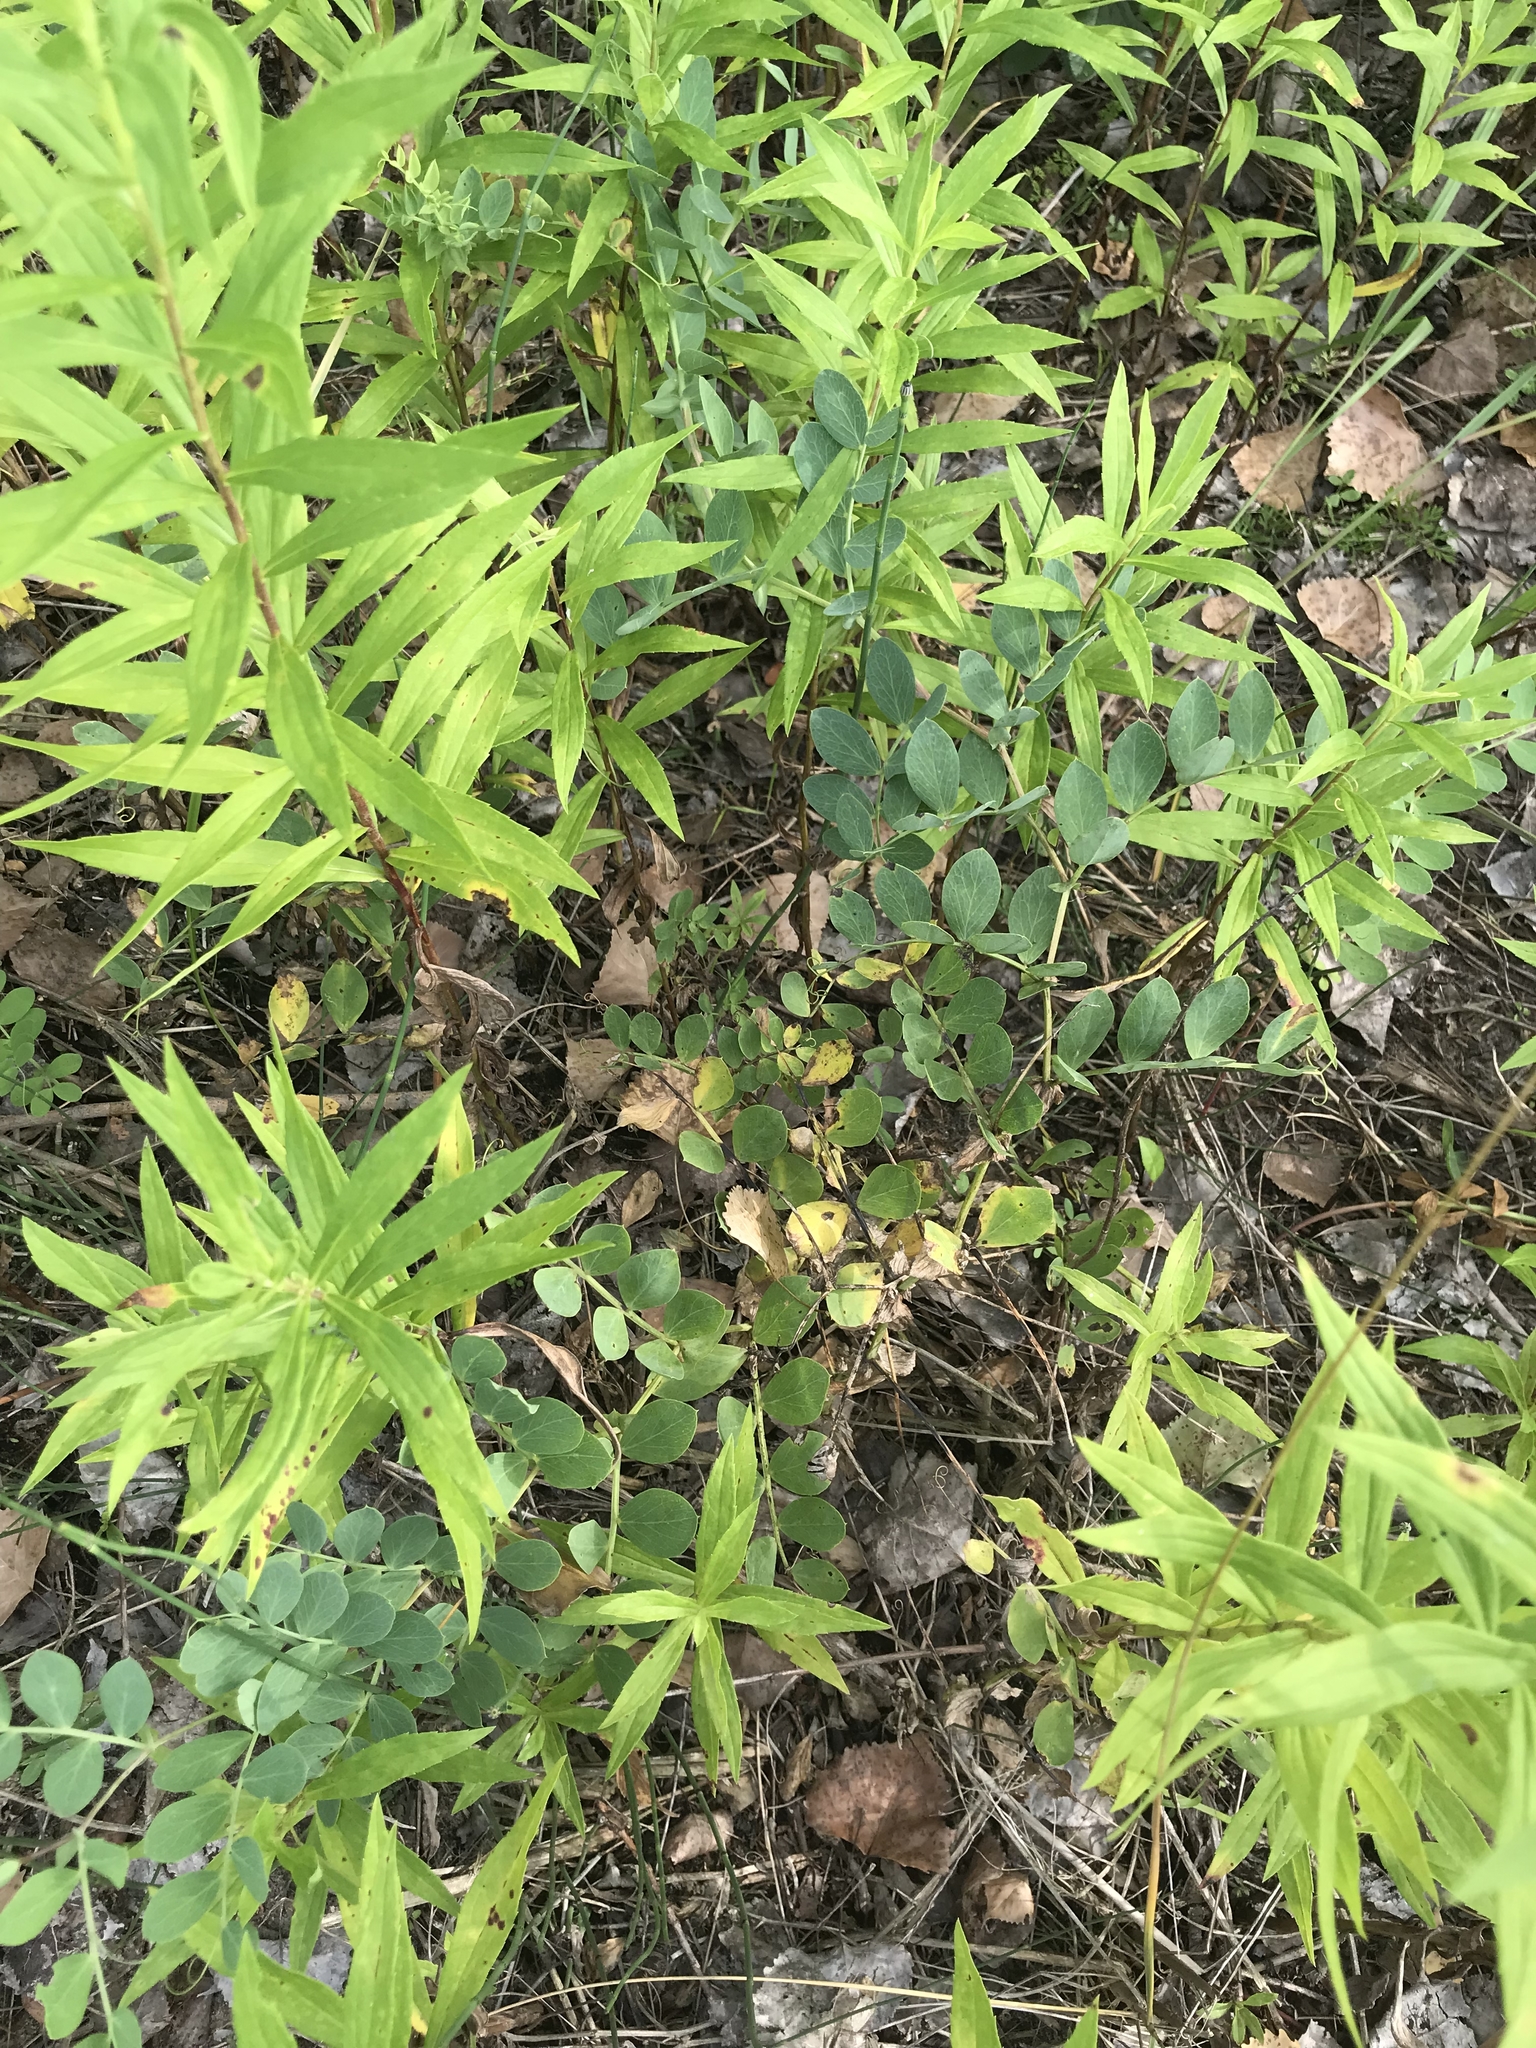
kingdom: Plantae
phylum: Tracheophyta
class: Magnoliopsida
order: Fabales
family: Fabaceae
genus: Lathyrus
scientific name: Lathyrus japonicus
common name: Sea pea
